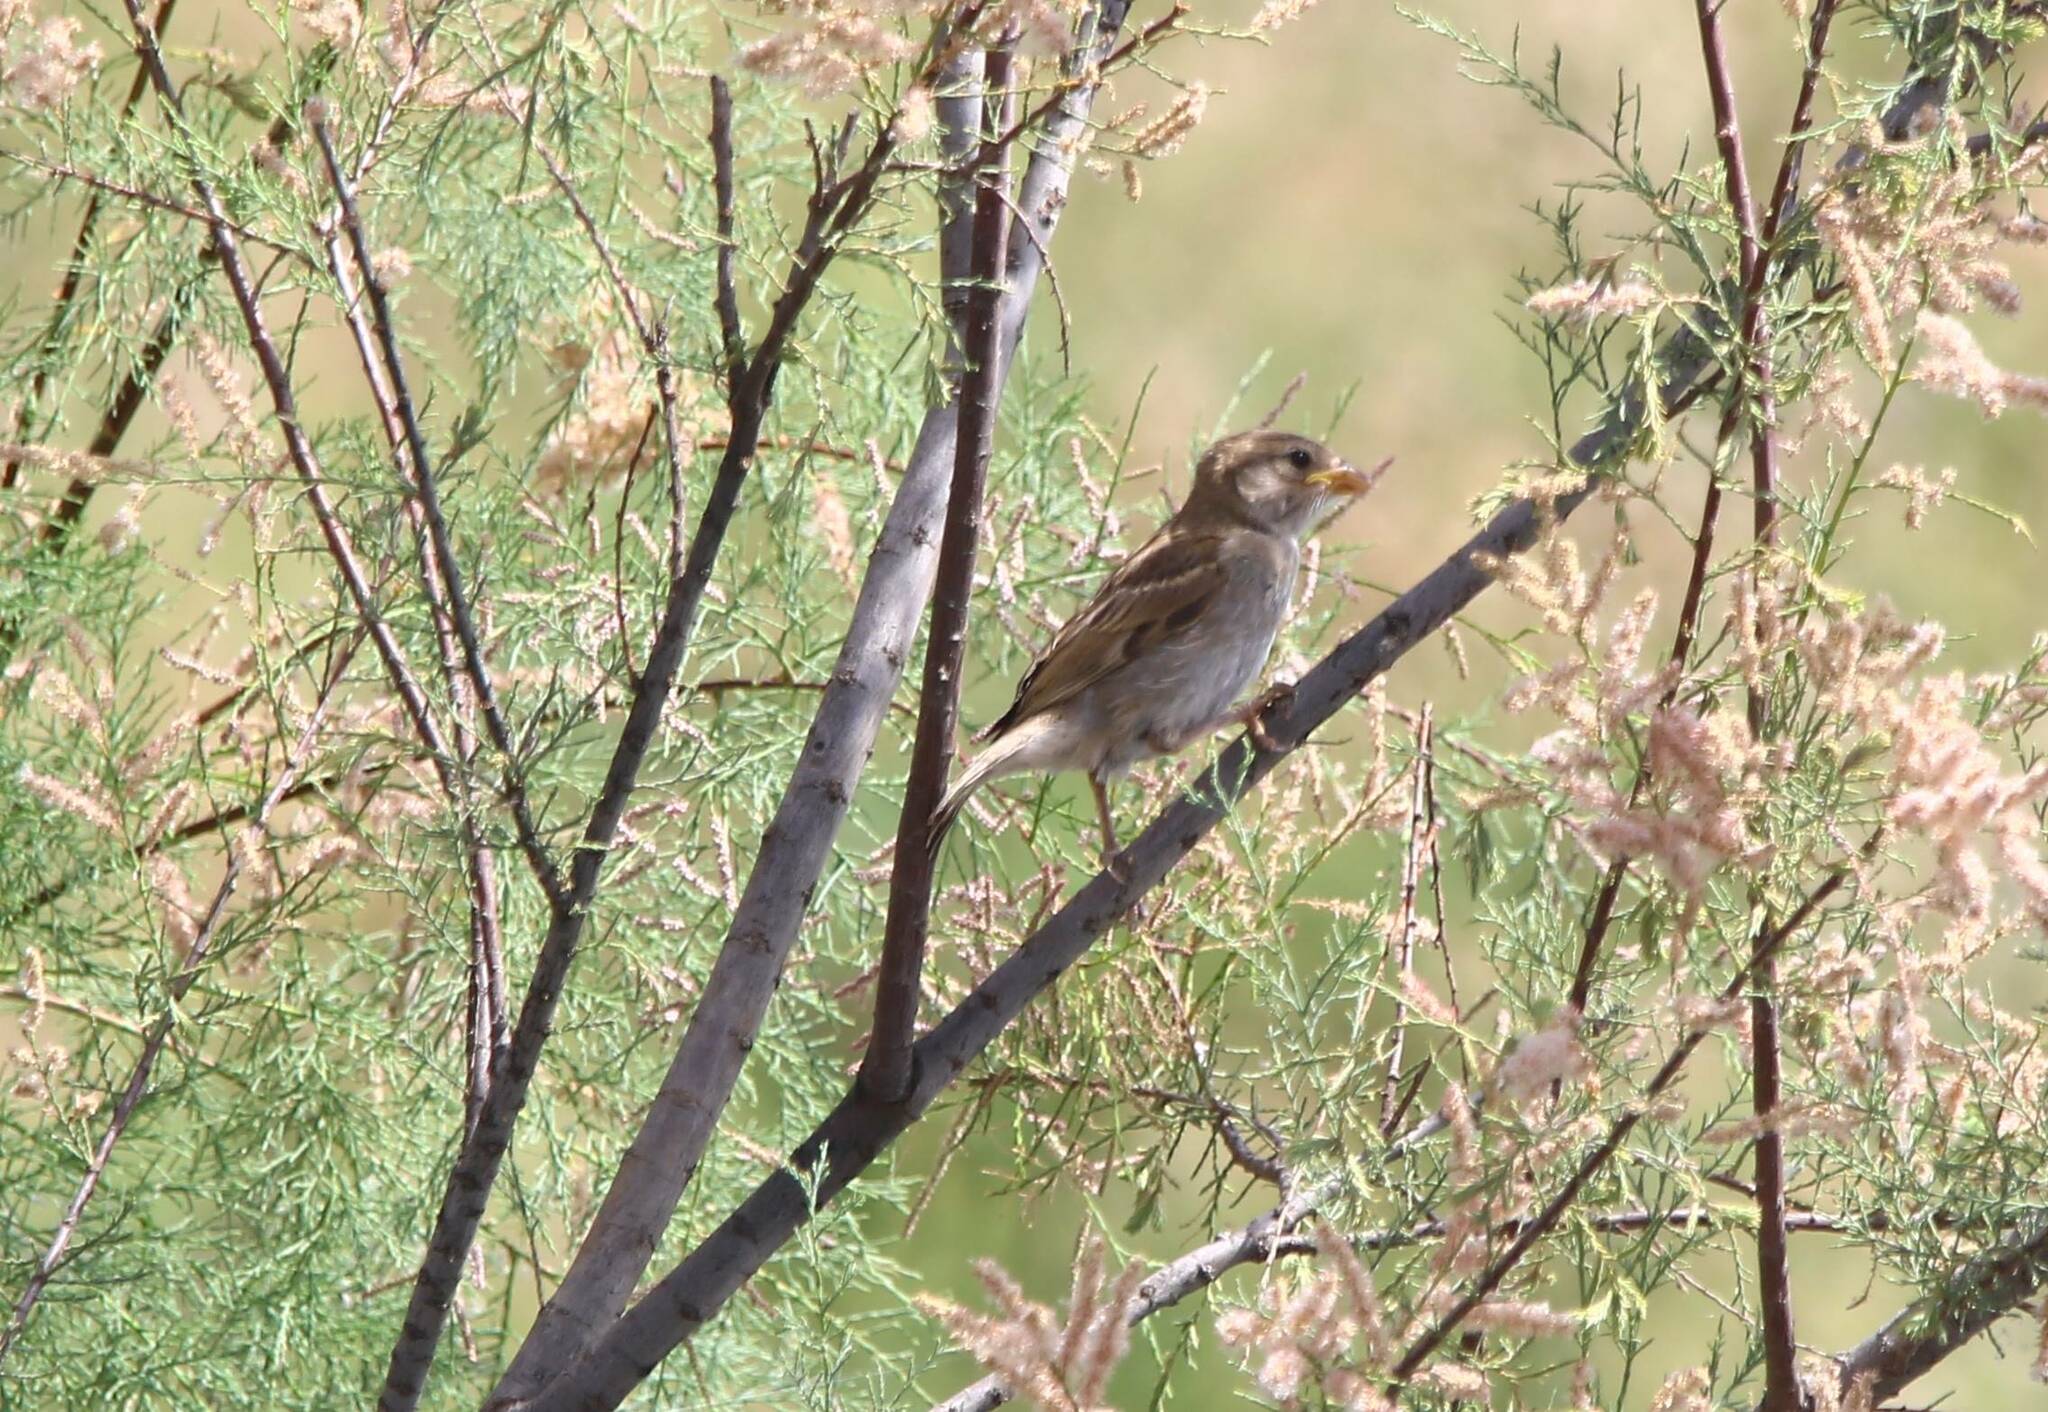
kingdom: Animalia
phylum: Chordata
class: Aves
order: Passeriformes
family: Passeridae
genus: Passer
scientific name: Passer domesticus
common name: House sparrow
